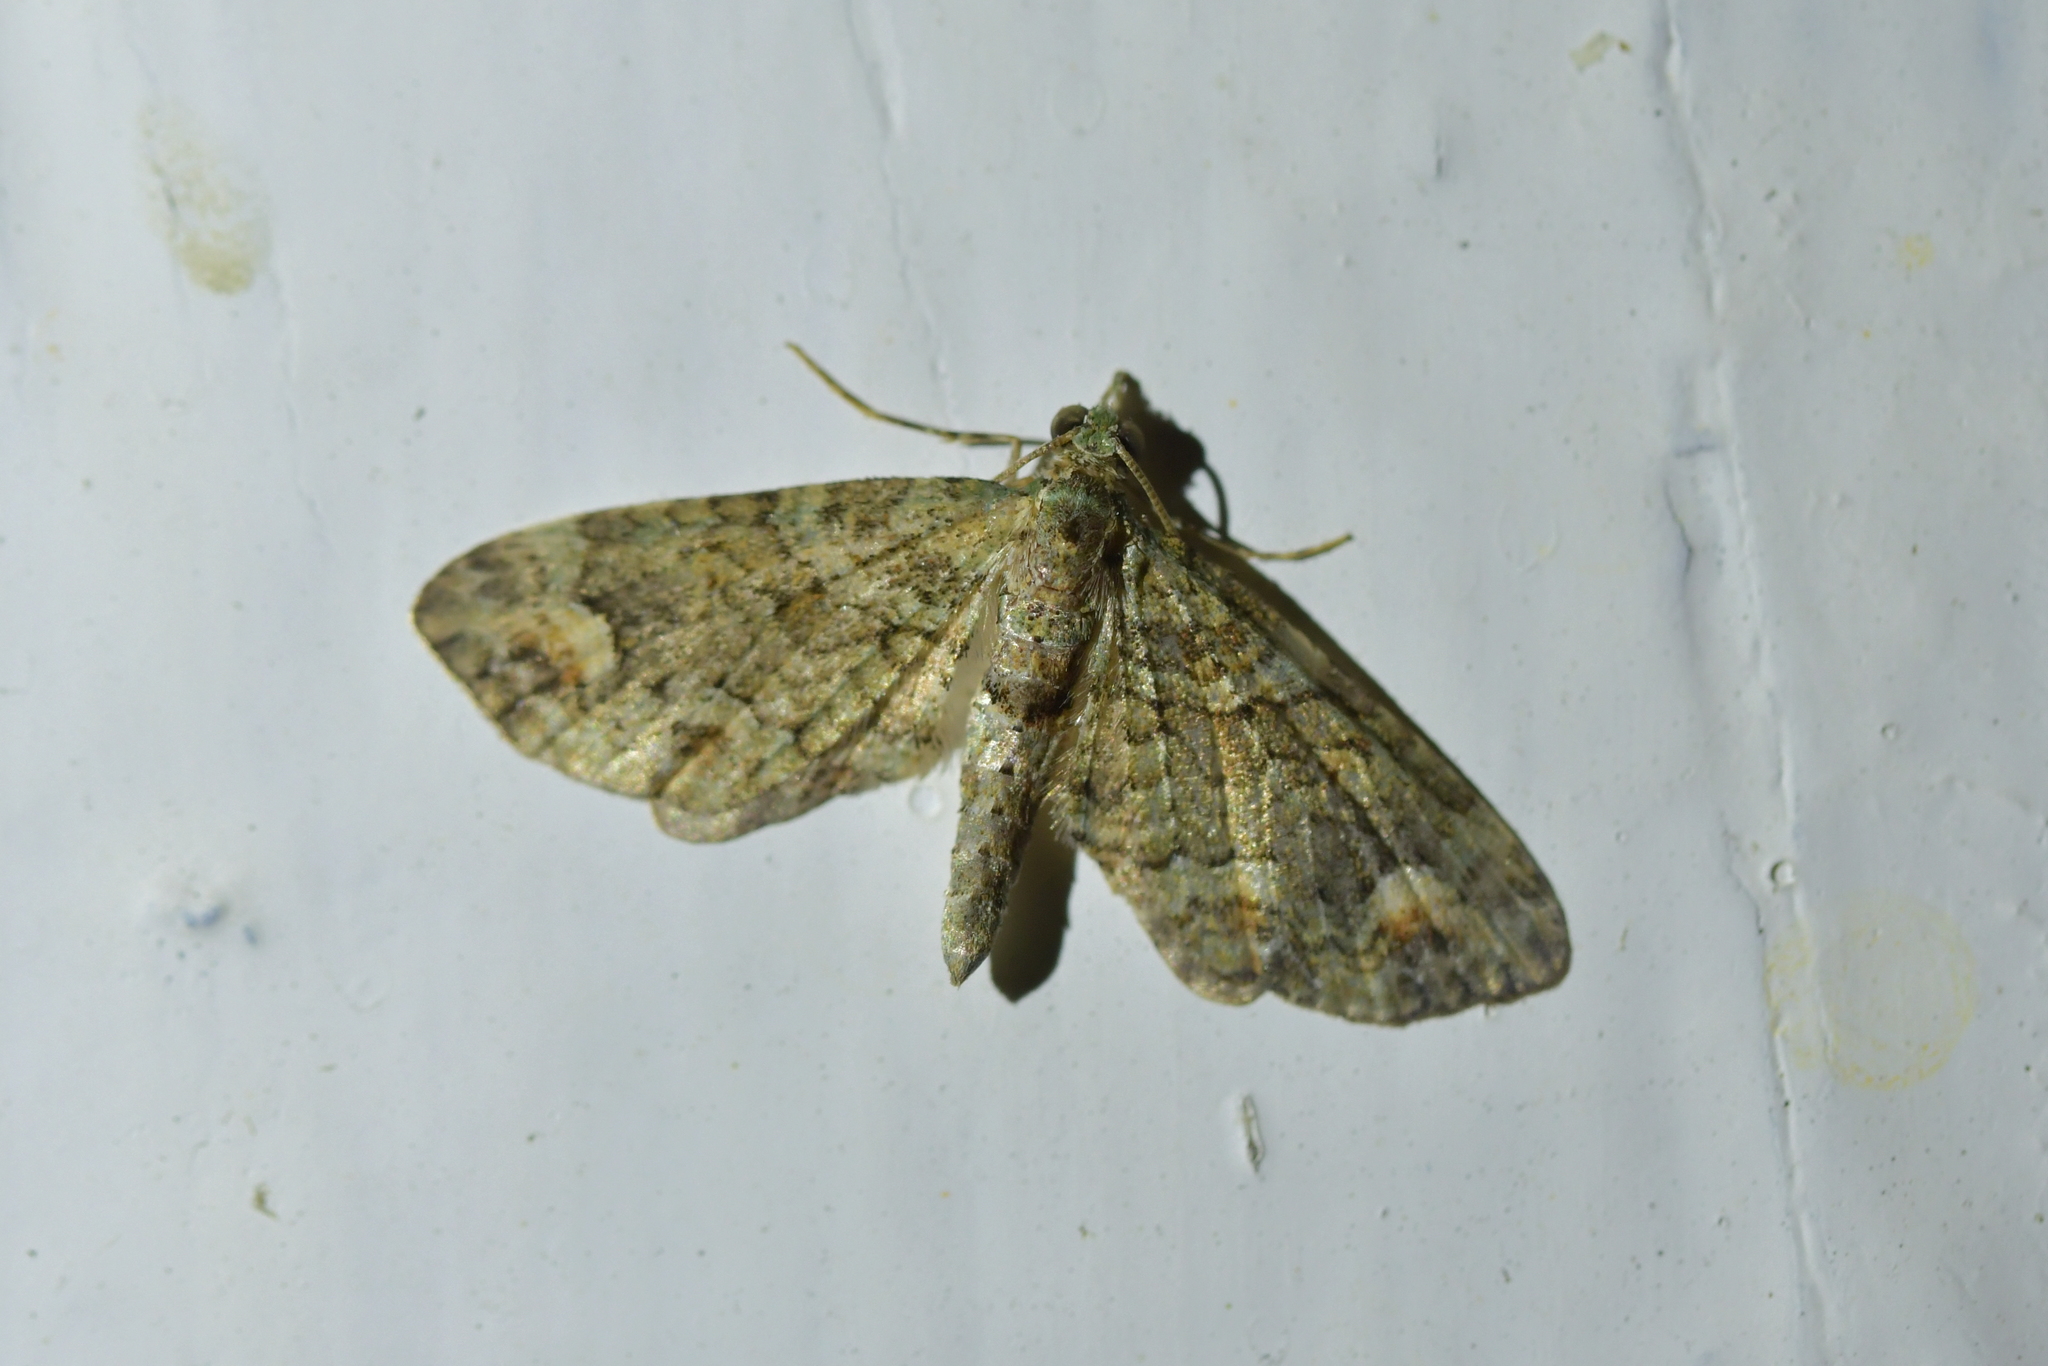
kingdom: Animalia
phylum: Arthropoda
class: Insecta
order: Lepidoptera
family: Geometridae
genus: Idaea
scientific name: Idaea mutanda
